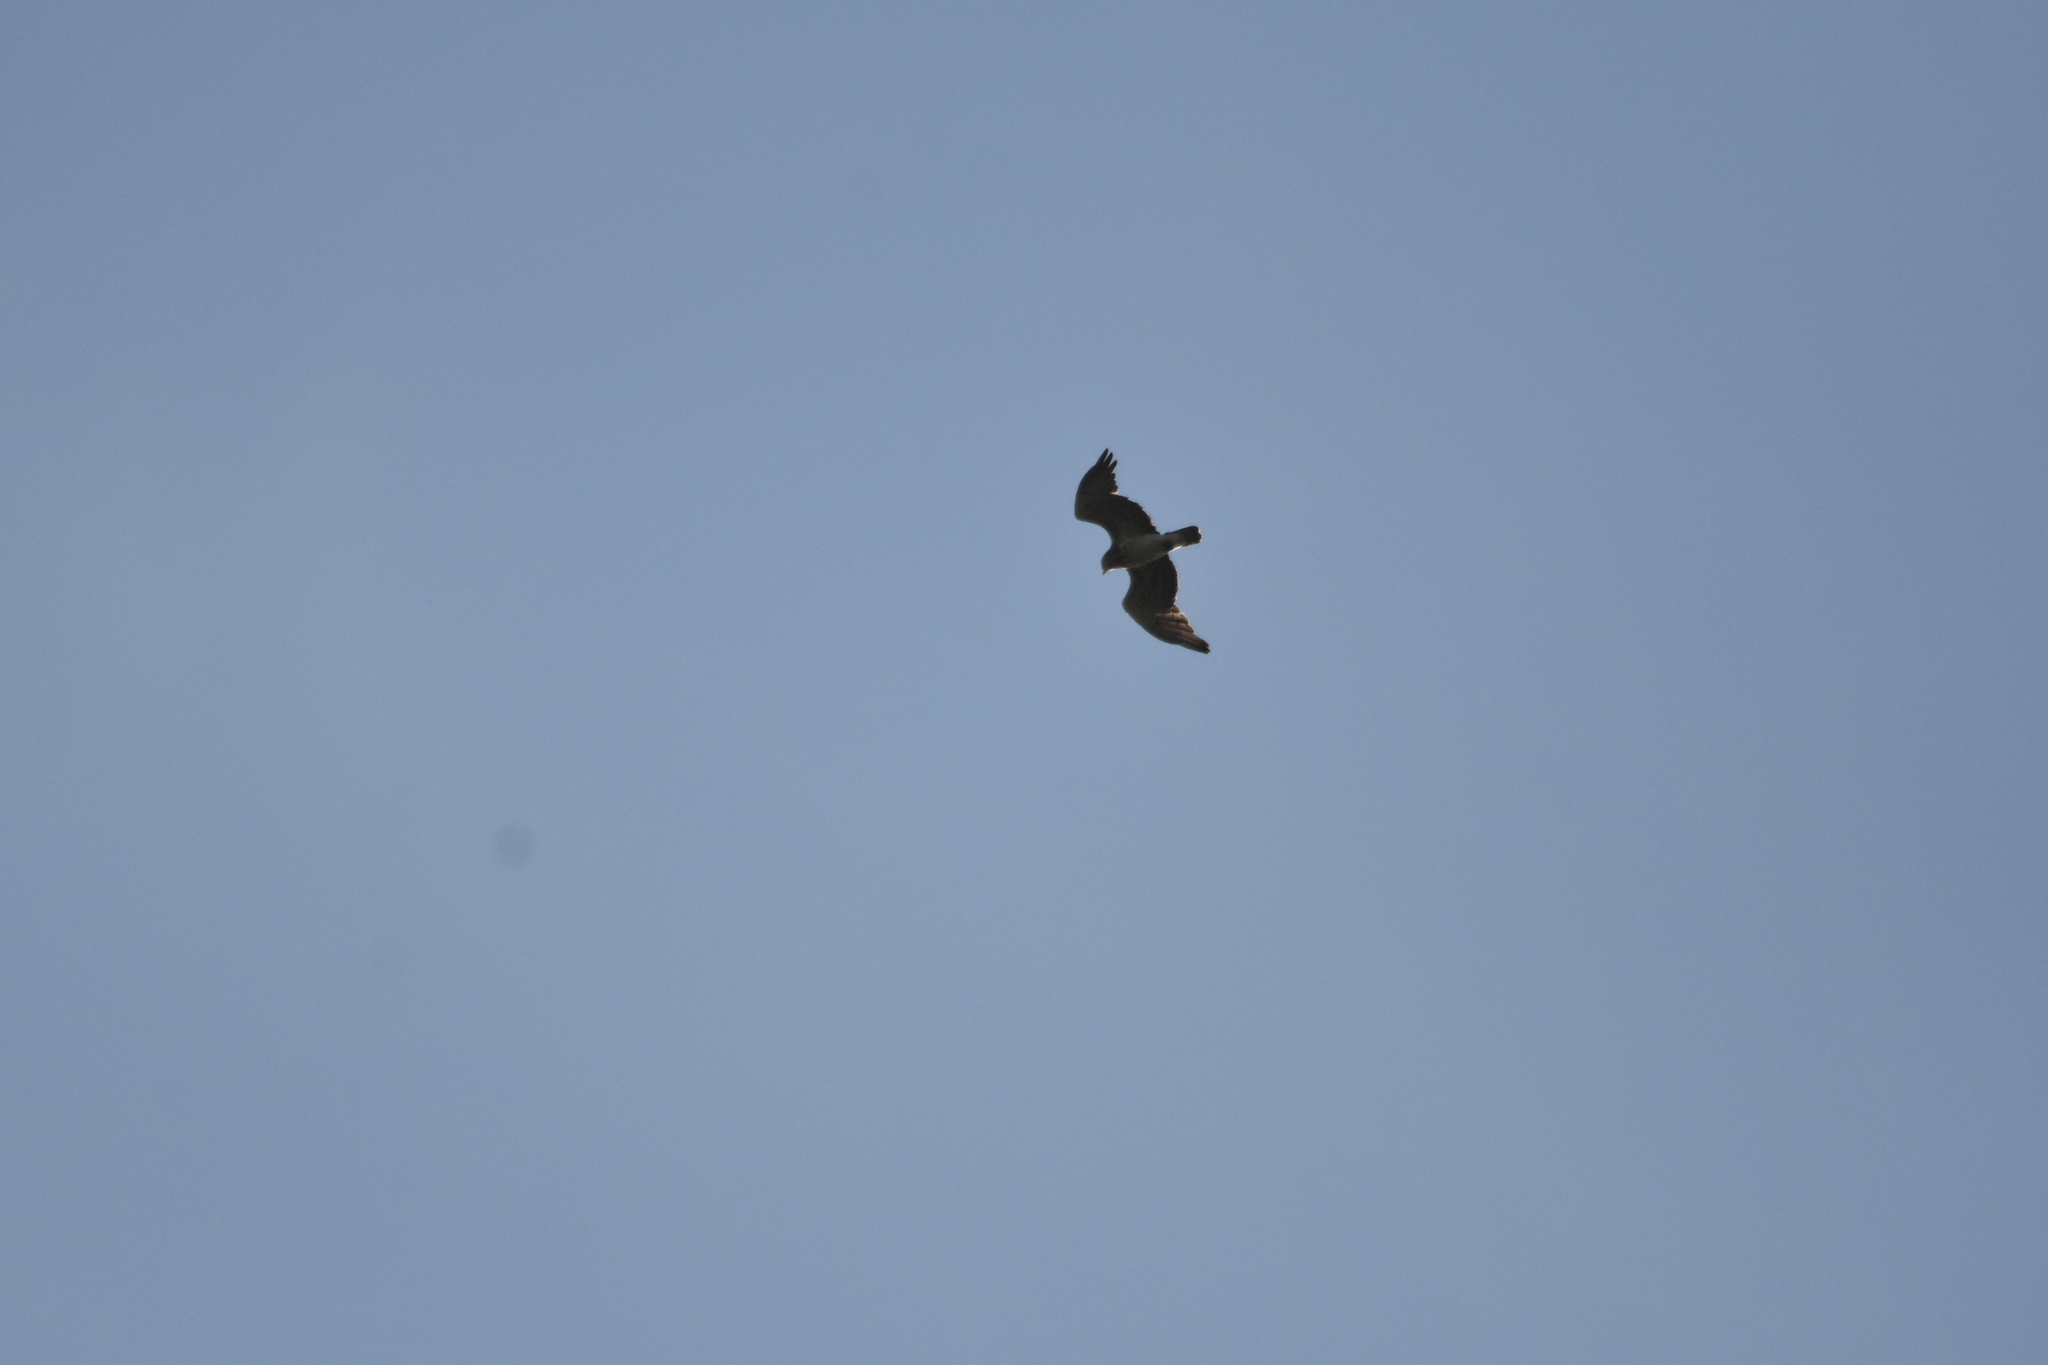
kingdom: Animalia
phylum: Chordata
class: Aves
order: Accipitriformes
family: Accipitridae
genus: Circaetus
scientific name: Circaetus gallicus
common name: Short-toed snake eagle
